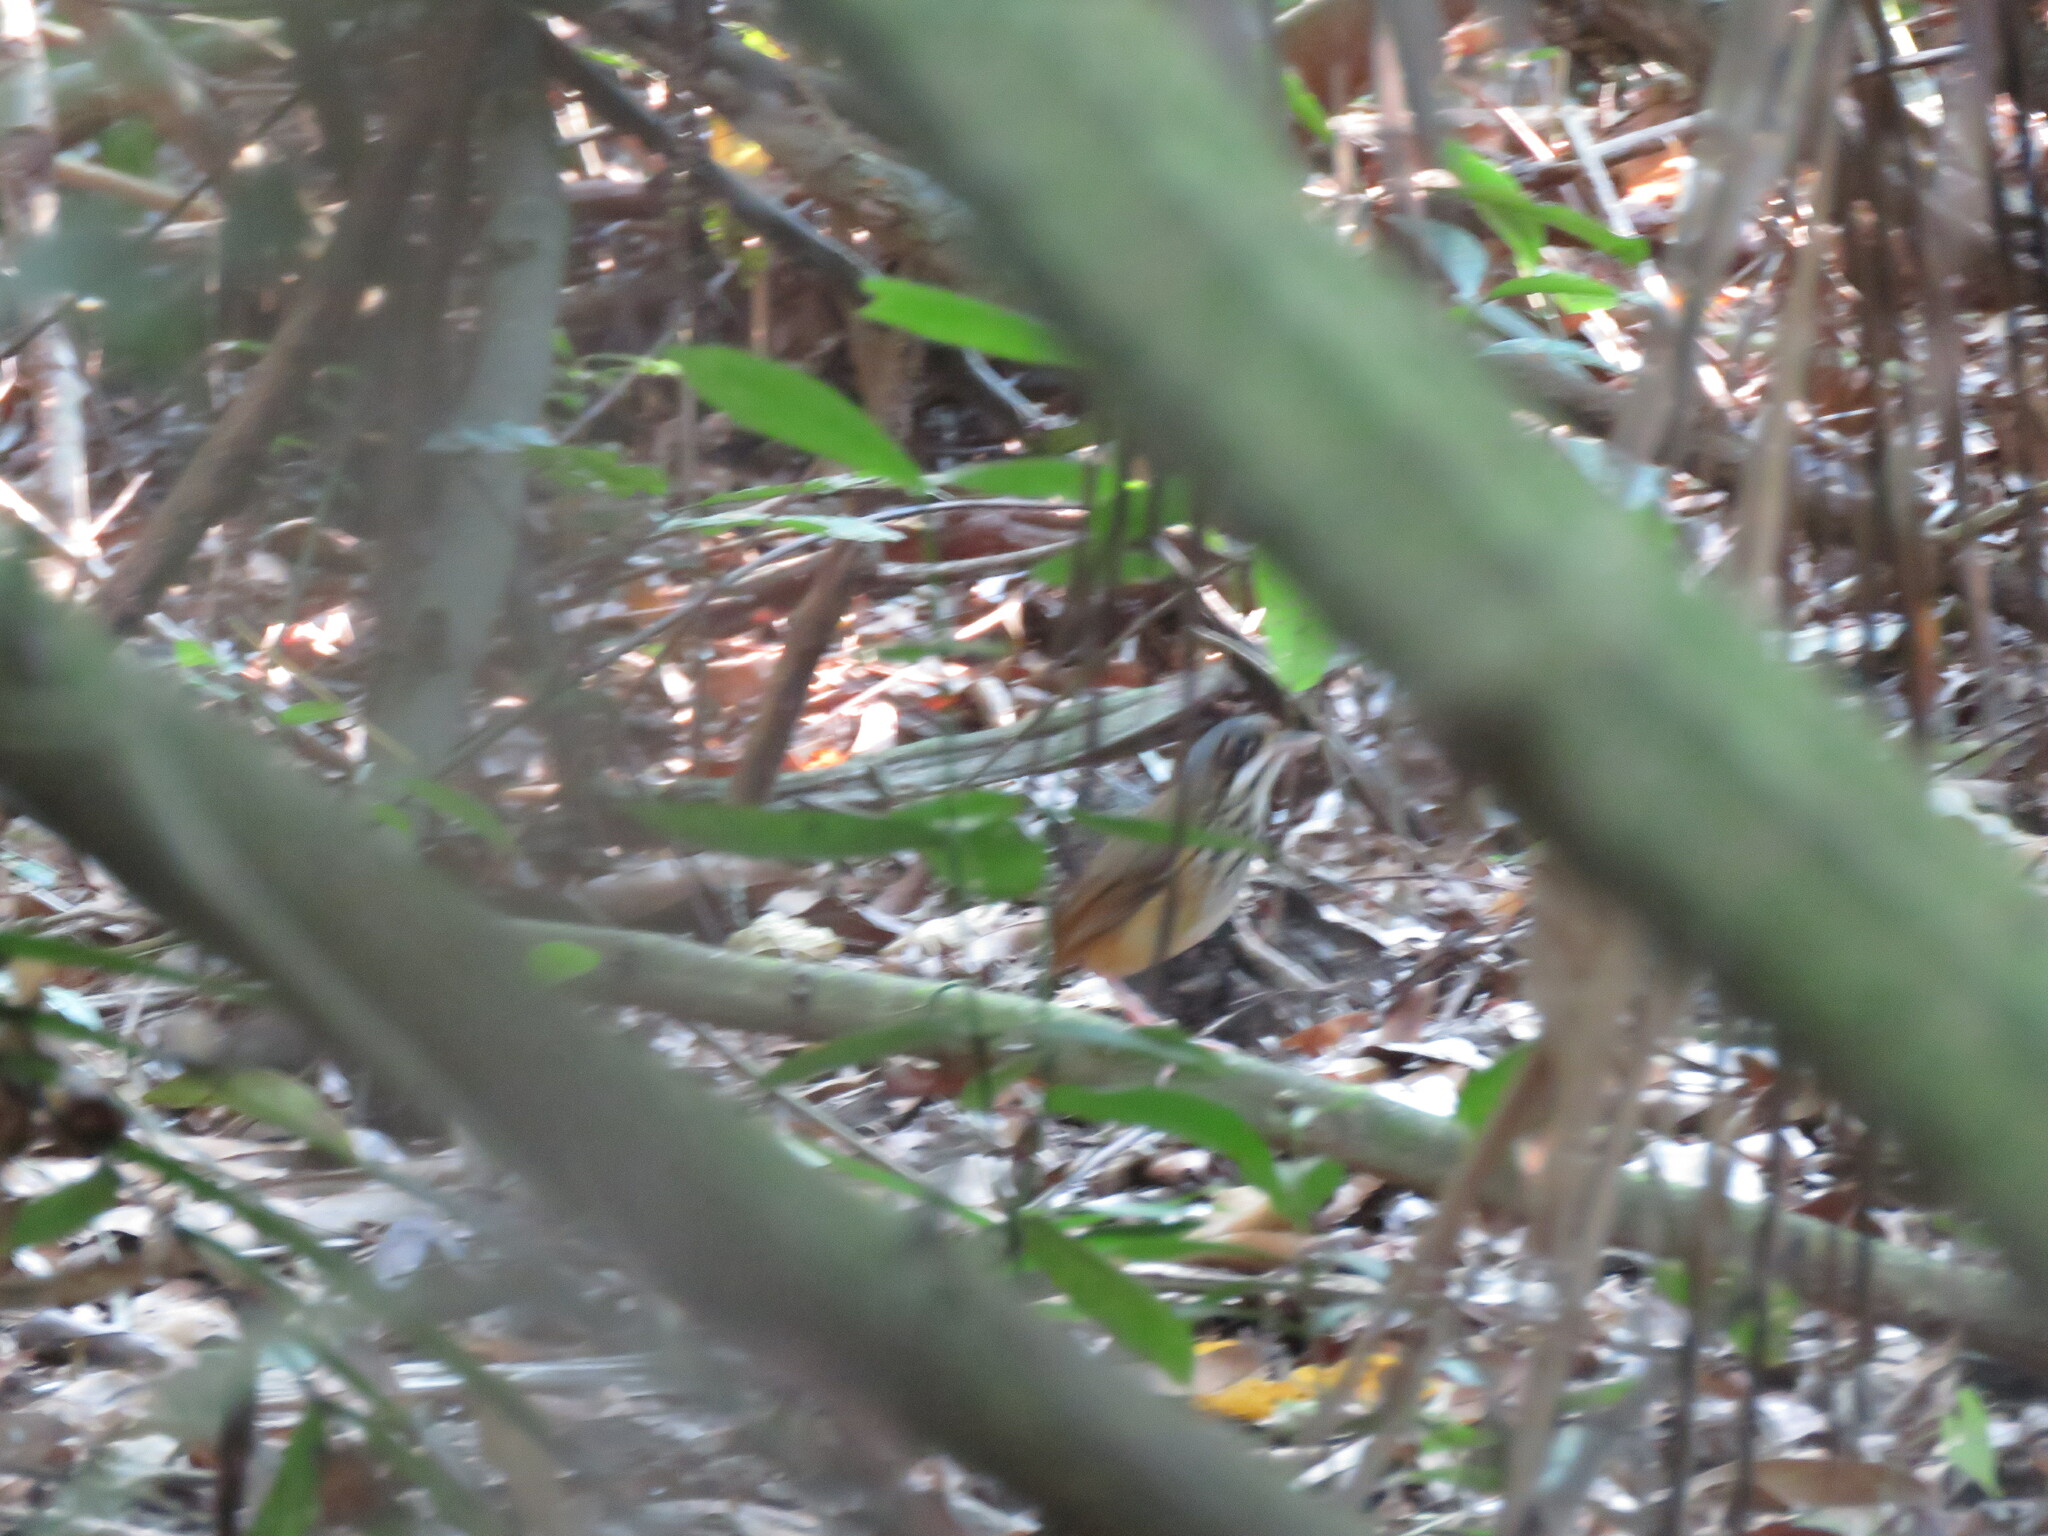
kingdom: Animalia
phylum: Chordata
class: Aves
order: Passeriformes
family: Grallariidae
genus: Hylopezus
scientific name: Hylopezus auricularis
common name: Masked antpitta
